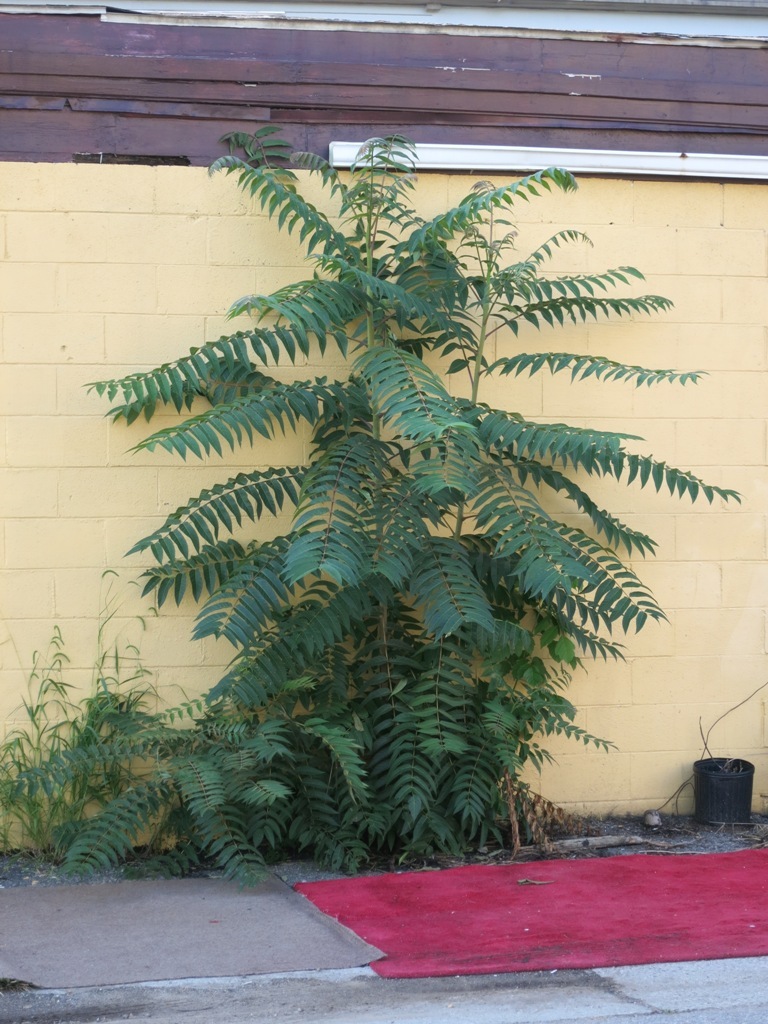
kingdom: Plantae
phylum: Tracheophyta
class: Magnoliopsida
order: Sapindales
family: Simaroubaceae
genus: Ailanthus
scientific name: Ailanthus altissima
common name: Tree-of-heaven
